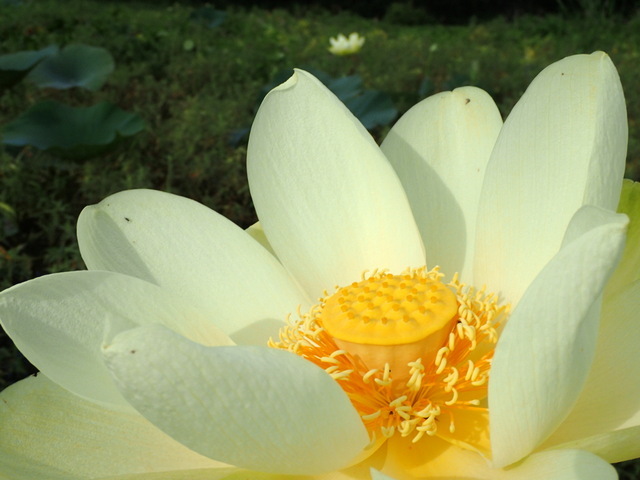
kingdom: Plantae
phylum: Tracheophyta
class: Magnoliopsida
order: Proteales
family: Nelumbonaceae
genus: Nelumbo
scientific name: Nelumbo lutea
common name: American lotus
